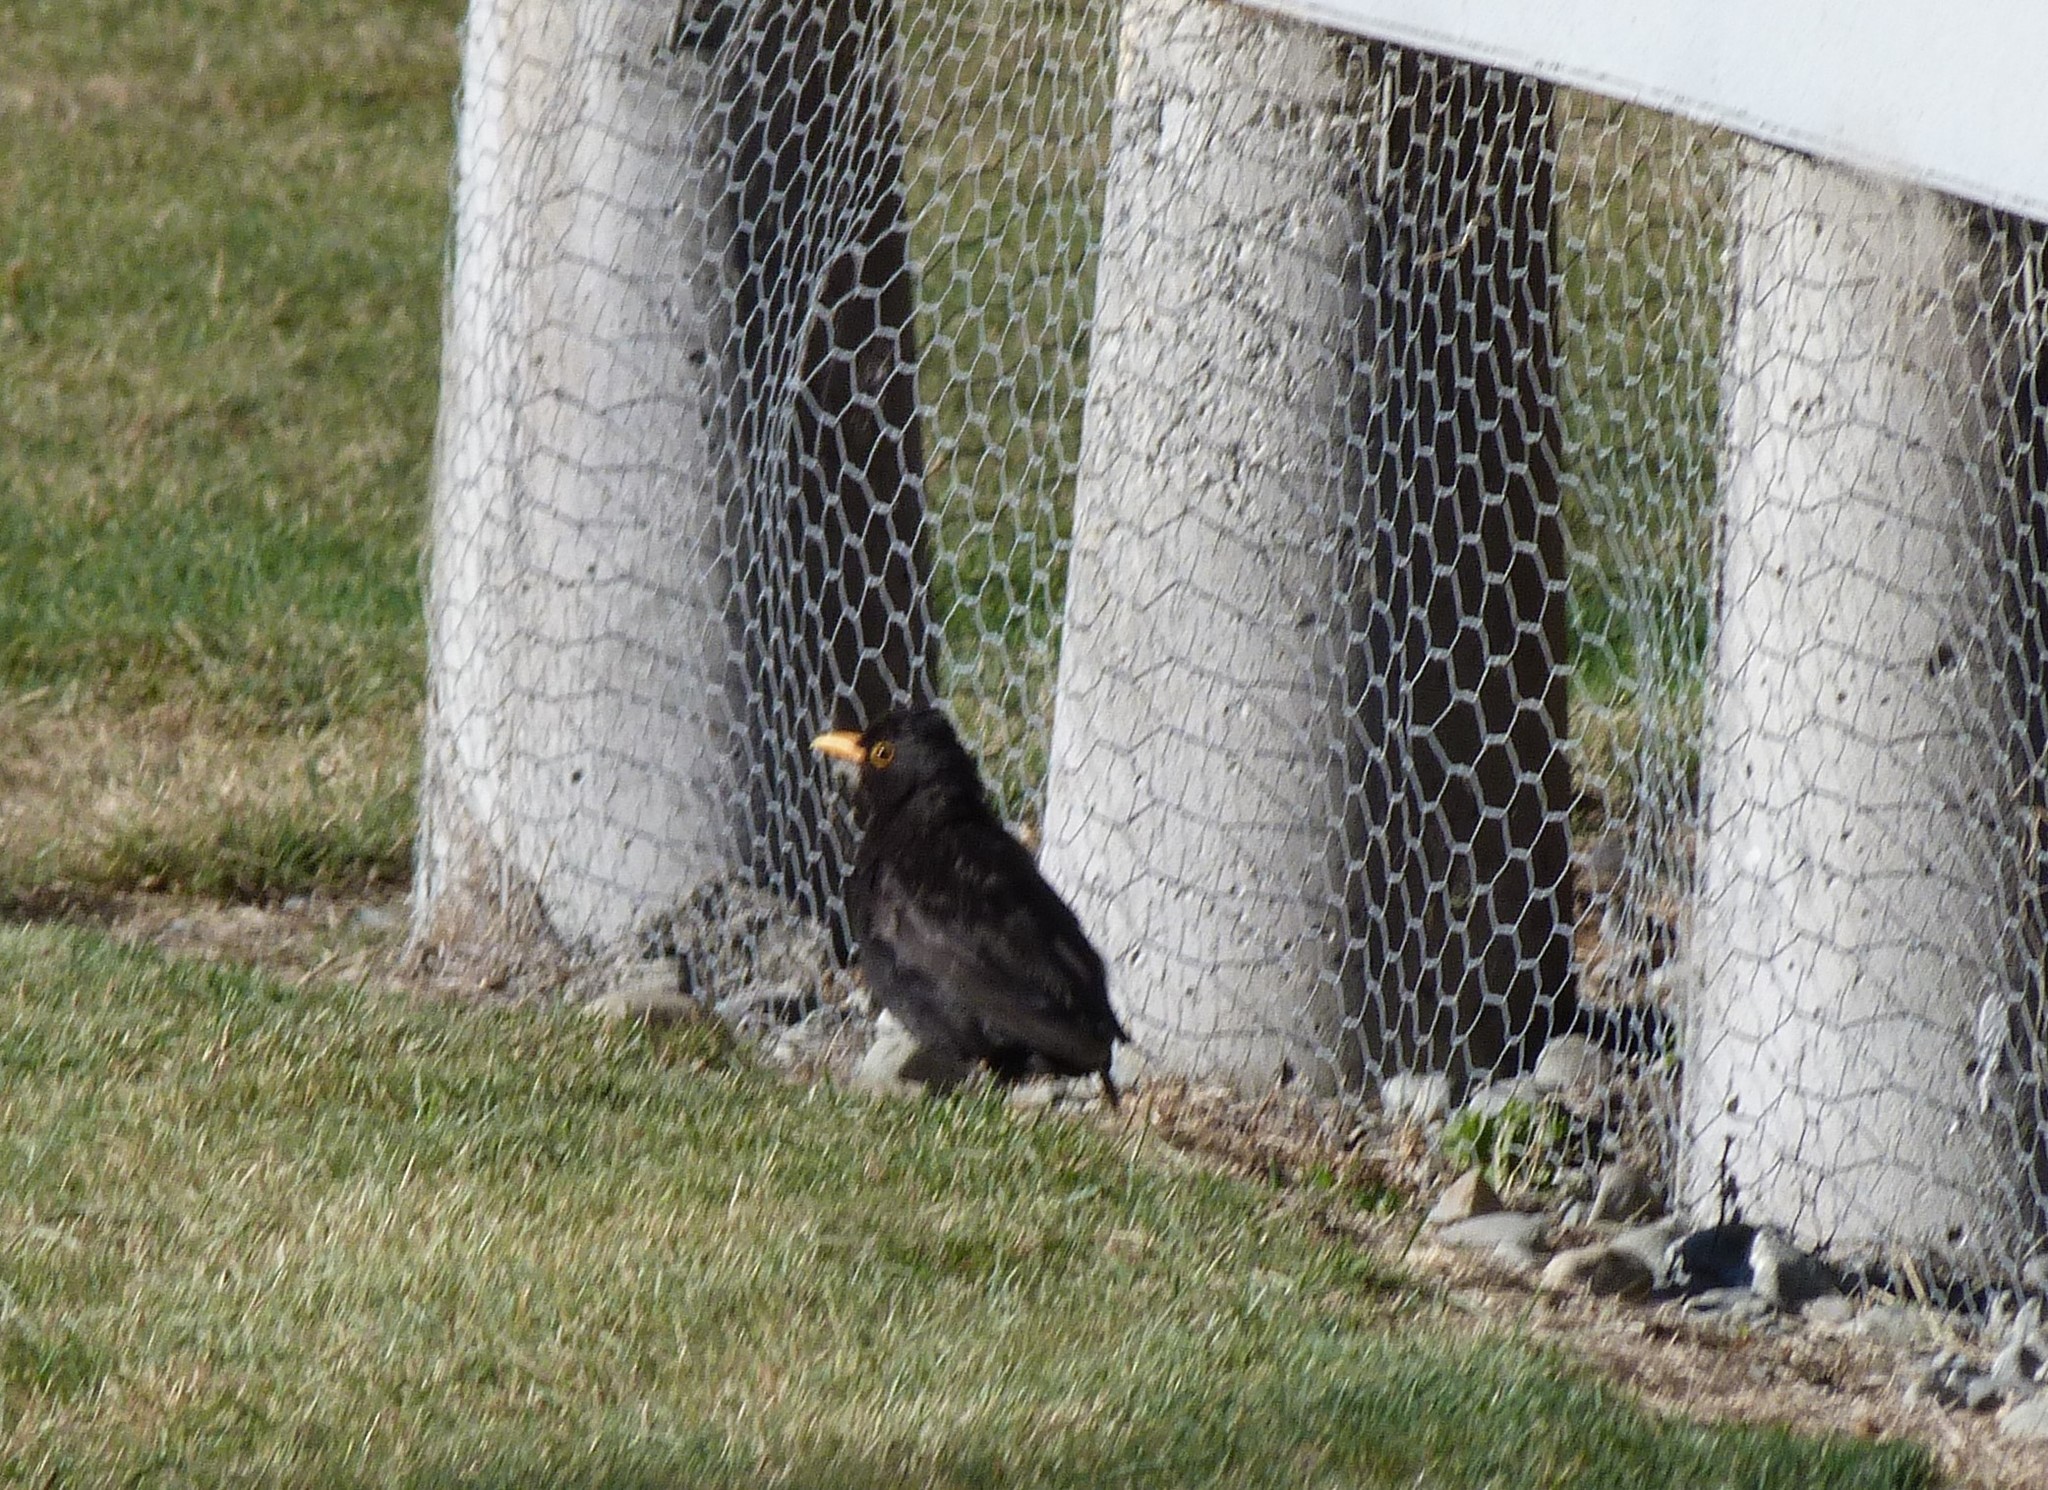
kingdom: Animalia
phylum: Chordata
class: Aves
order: Passeriformes
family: Turdidae
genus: Turdus
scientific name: Turdus merula
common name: Common blackbird
